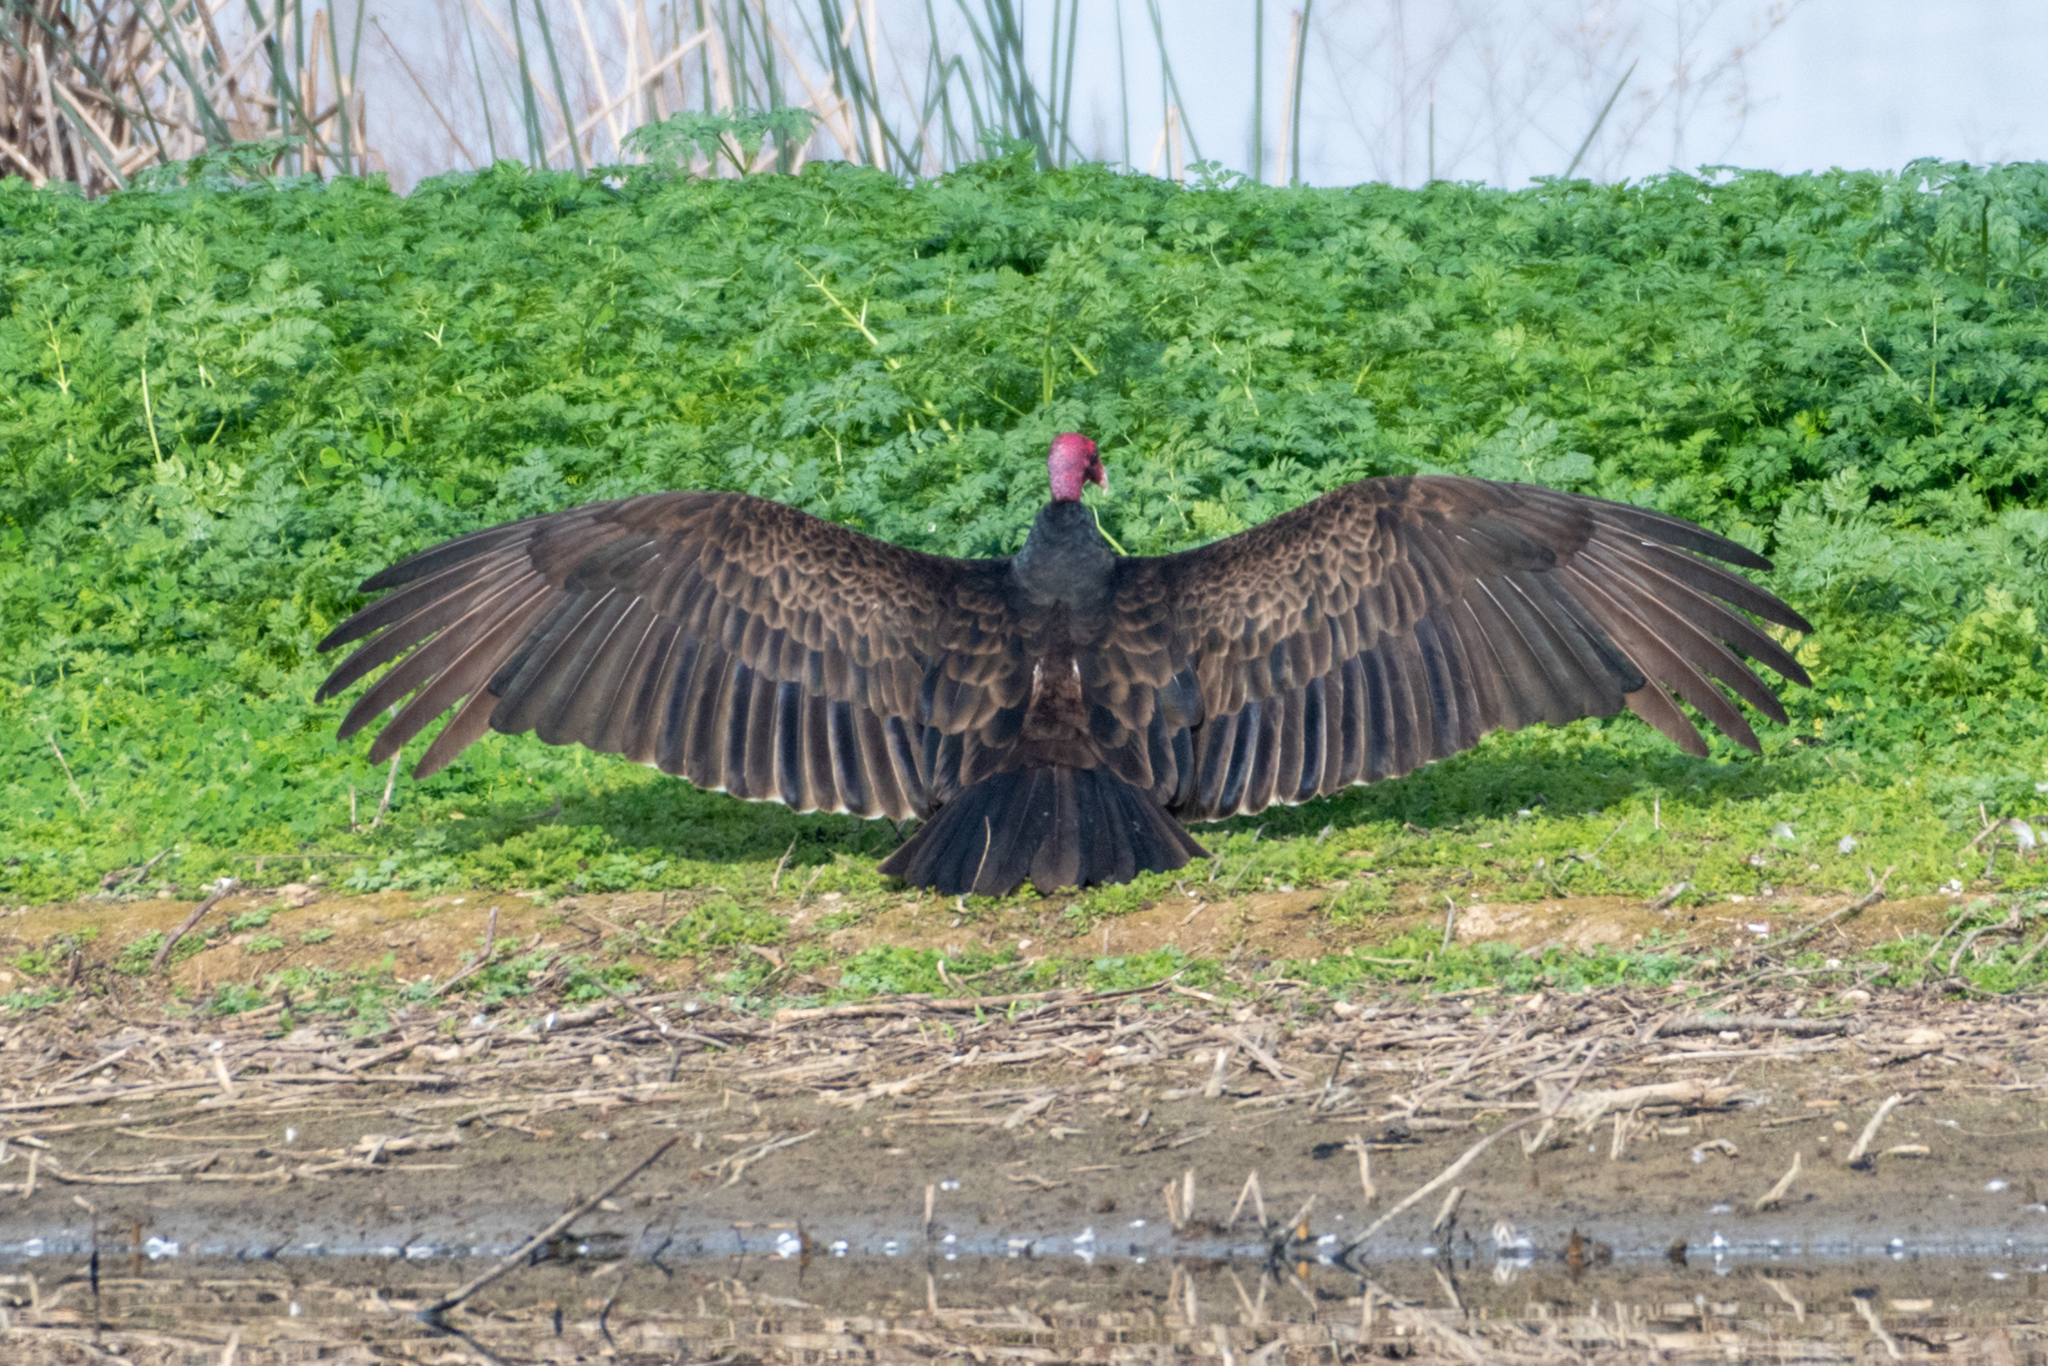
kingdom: Animalia
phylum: Chordata
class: Aves
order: Accipitriformes
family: Cathartidae
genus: Cathartes
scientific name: Cathartes aura
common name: Turkey vulture
